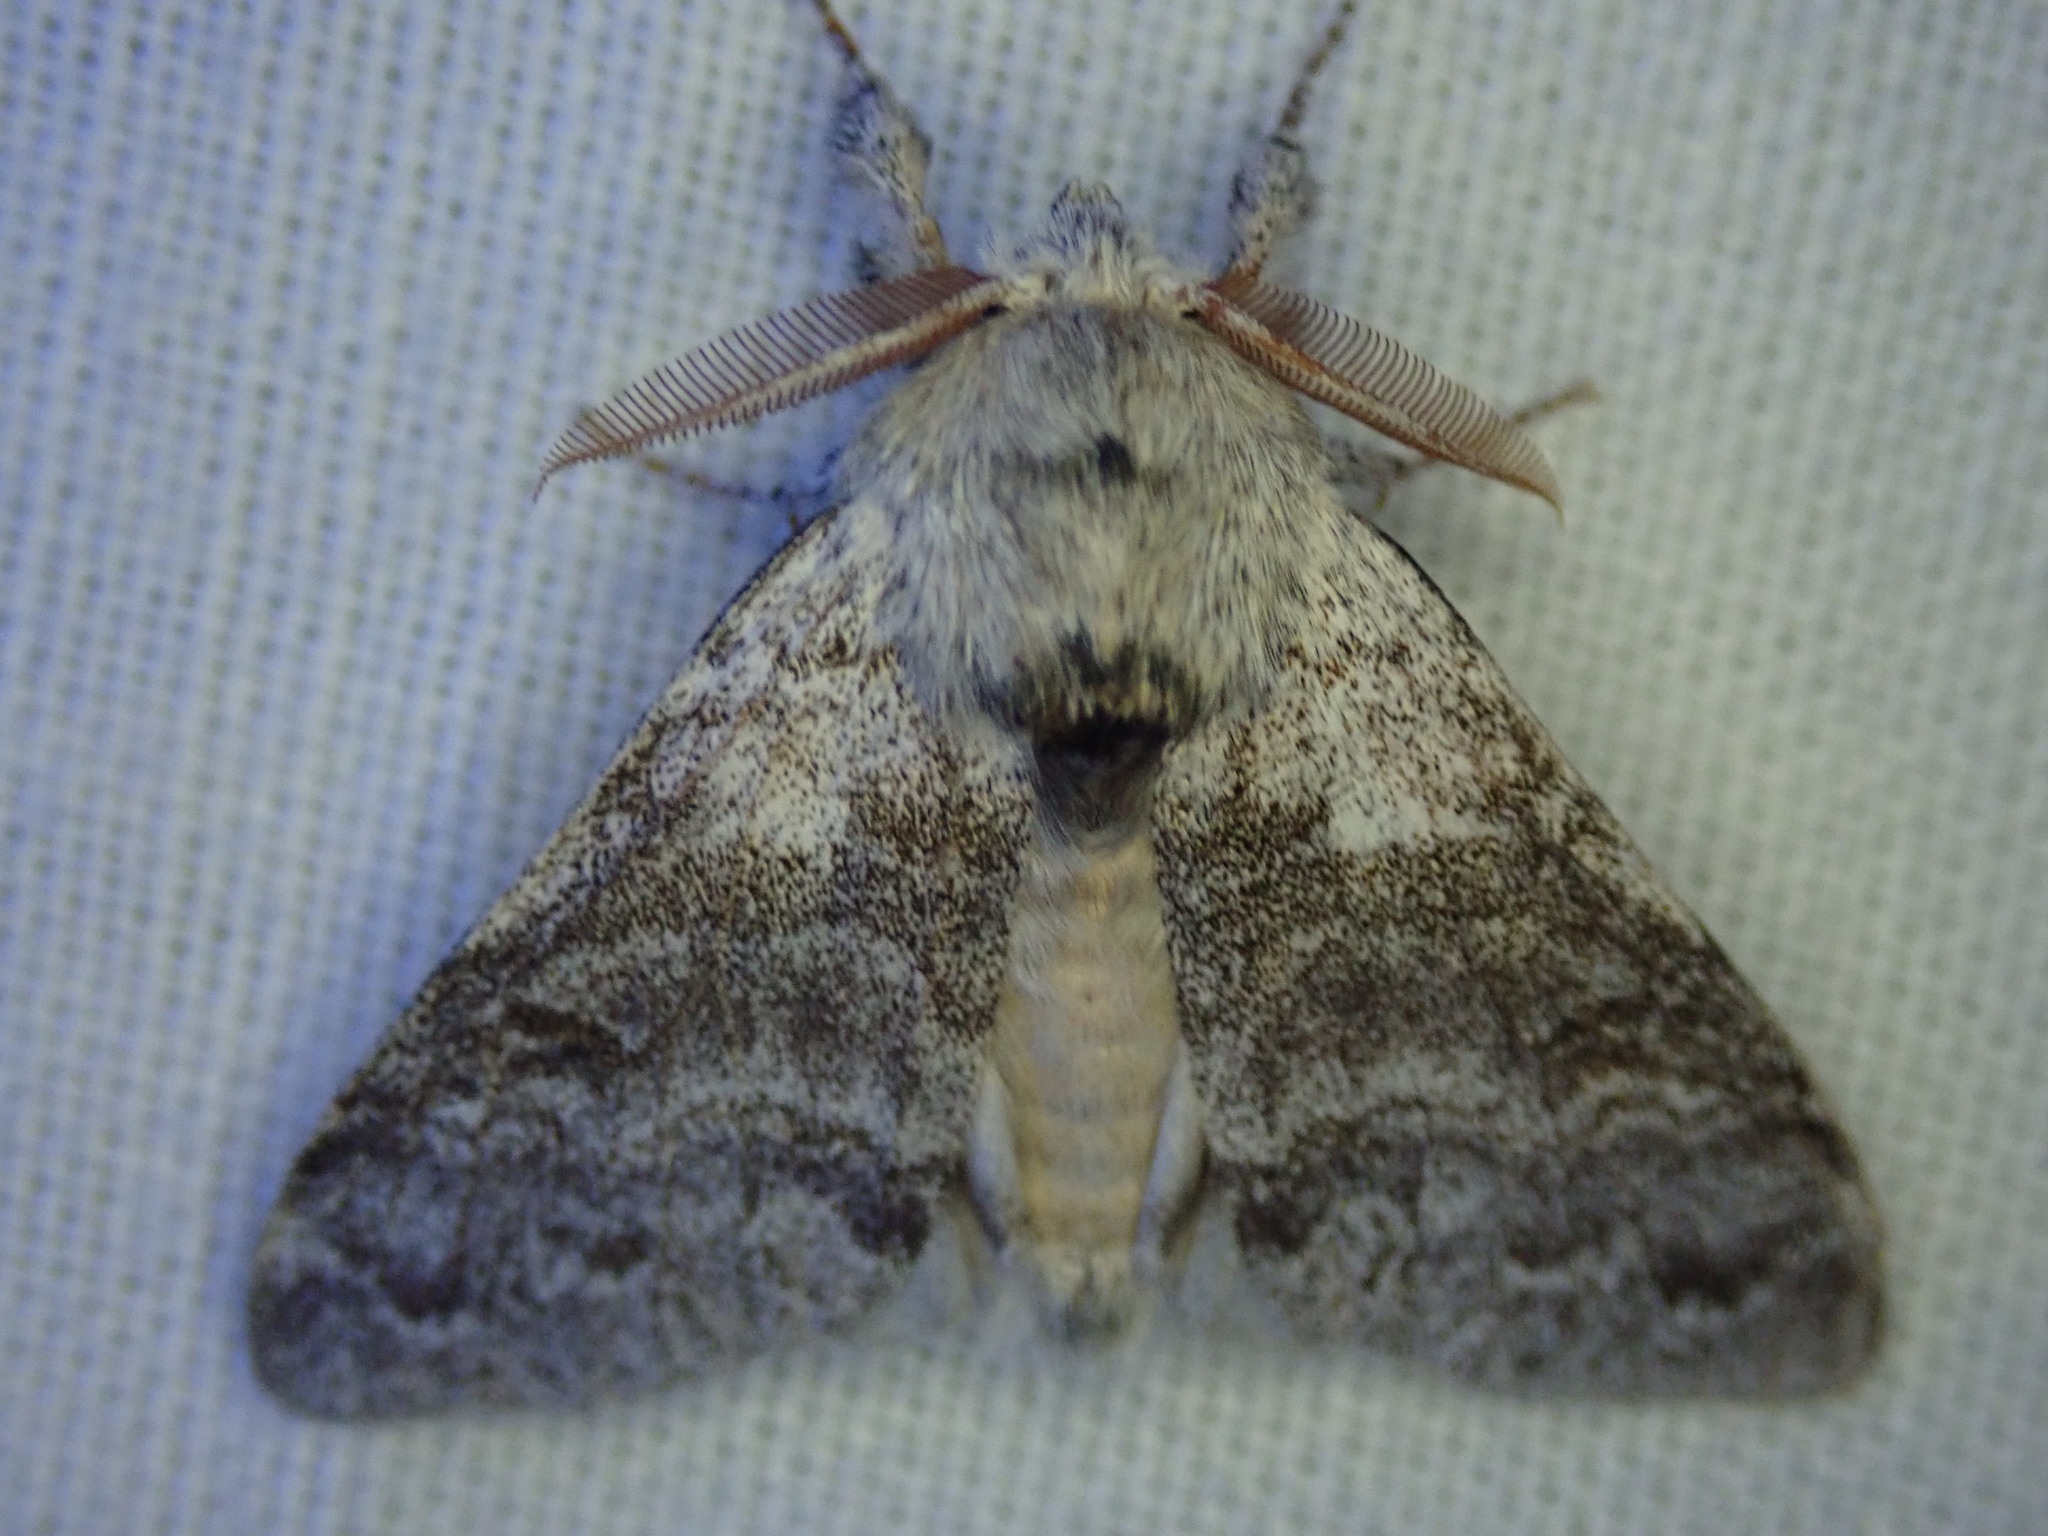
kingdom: Animalia
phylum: Arthropoda
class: Insecta
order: Lepidoptera
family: Erebidae
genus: Calliteara
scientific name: Calliteara pudibunda
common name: Pale tussock
